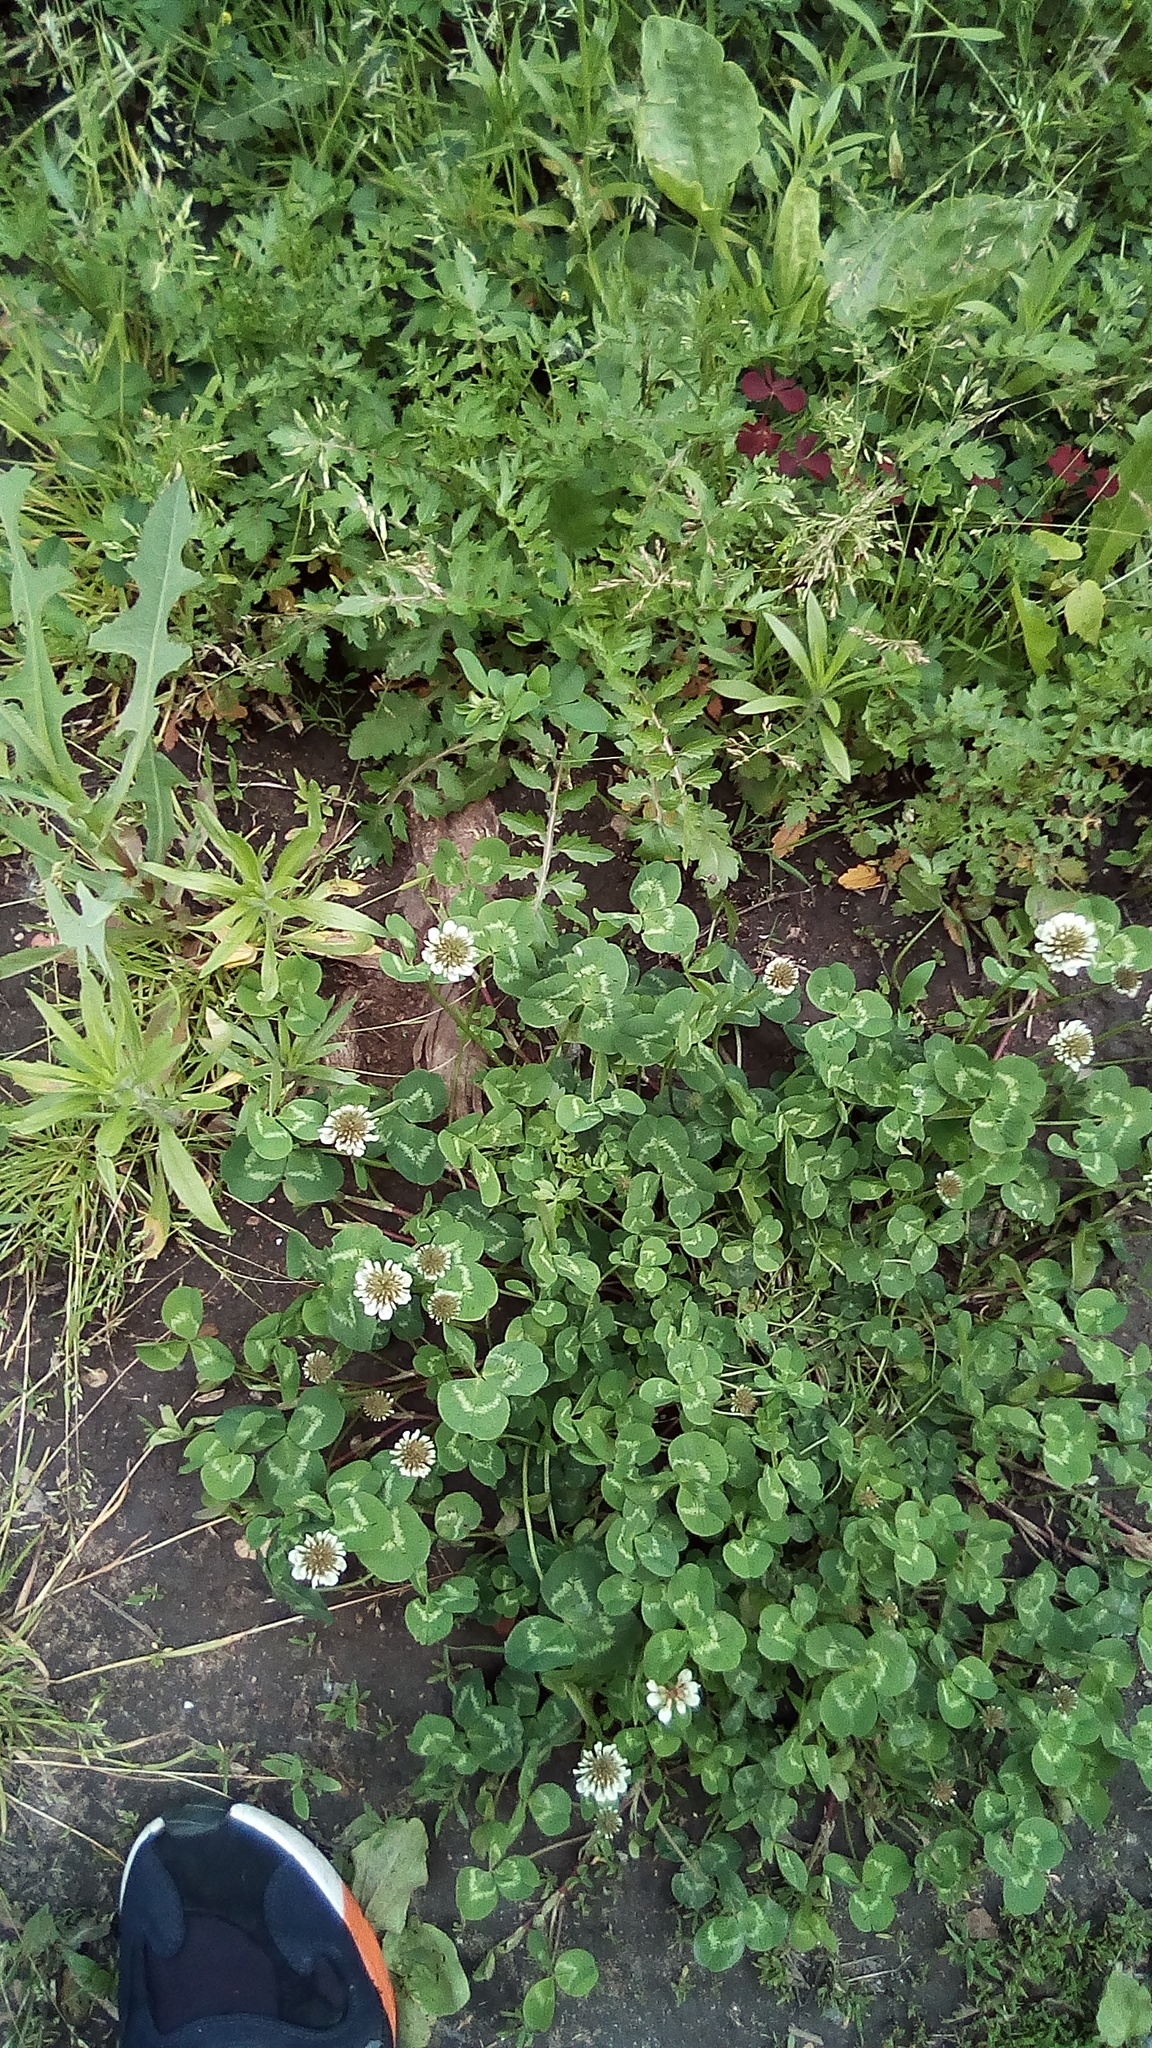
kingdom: Plantae
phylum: Tracheophyta
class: Magnoliopsida
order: Fabales
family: Fabaceae
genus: Trifolium
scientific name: Trifolium repens
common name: White clover
